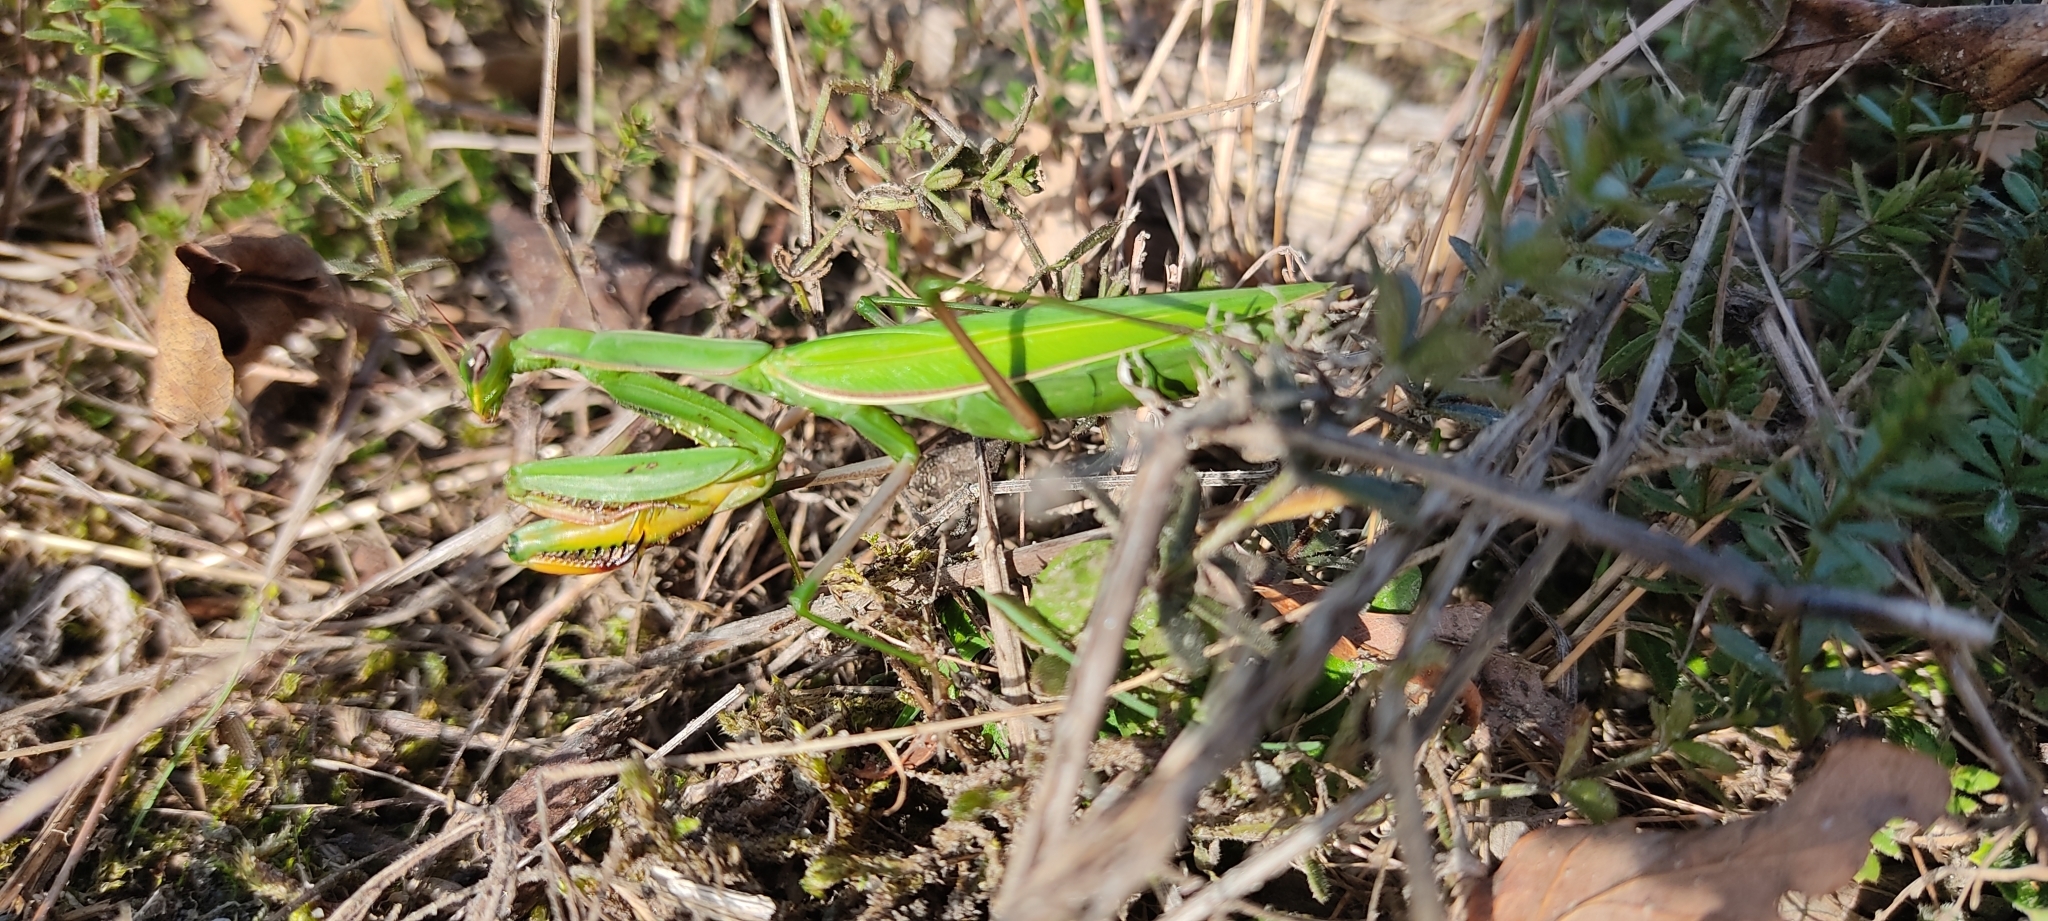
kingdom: Animalia
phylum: Arthropoda
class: Insecta
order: Mantodea
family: Mantidae
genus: Mantis
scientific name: Mantis religiosa
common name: Praying mantis
